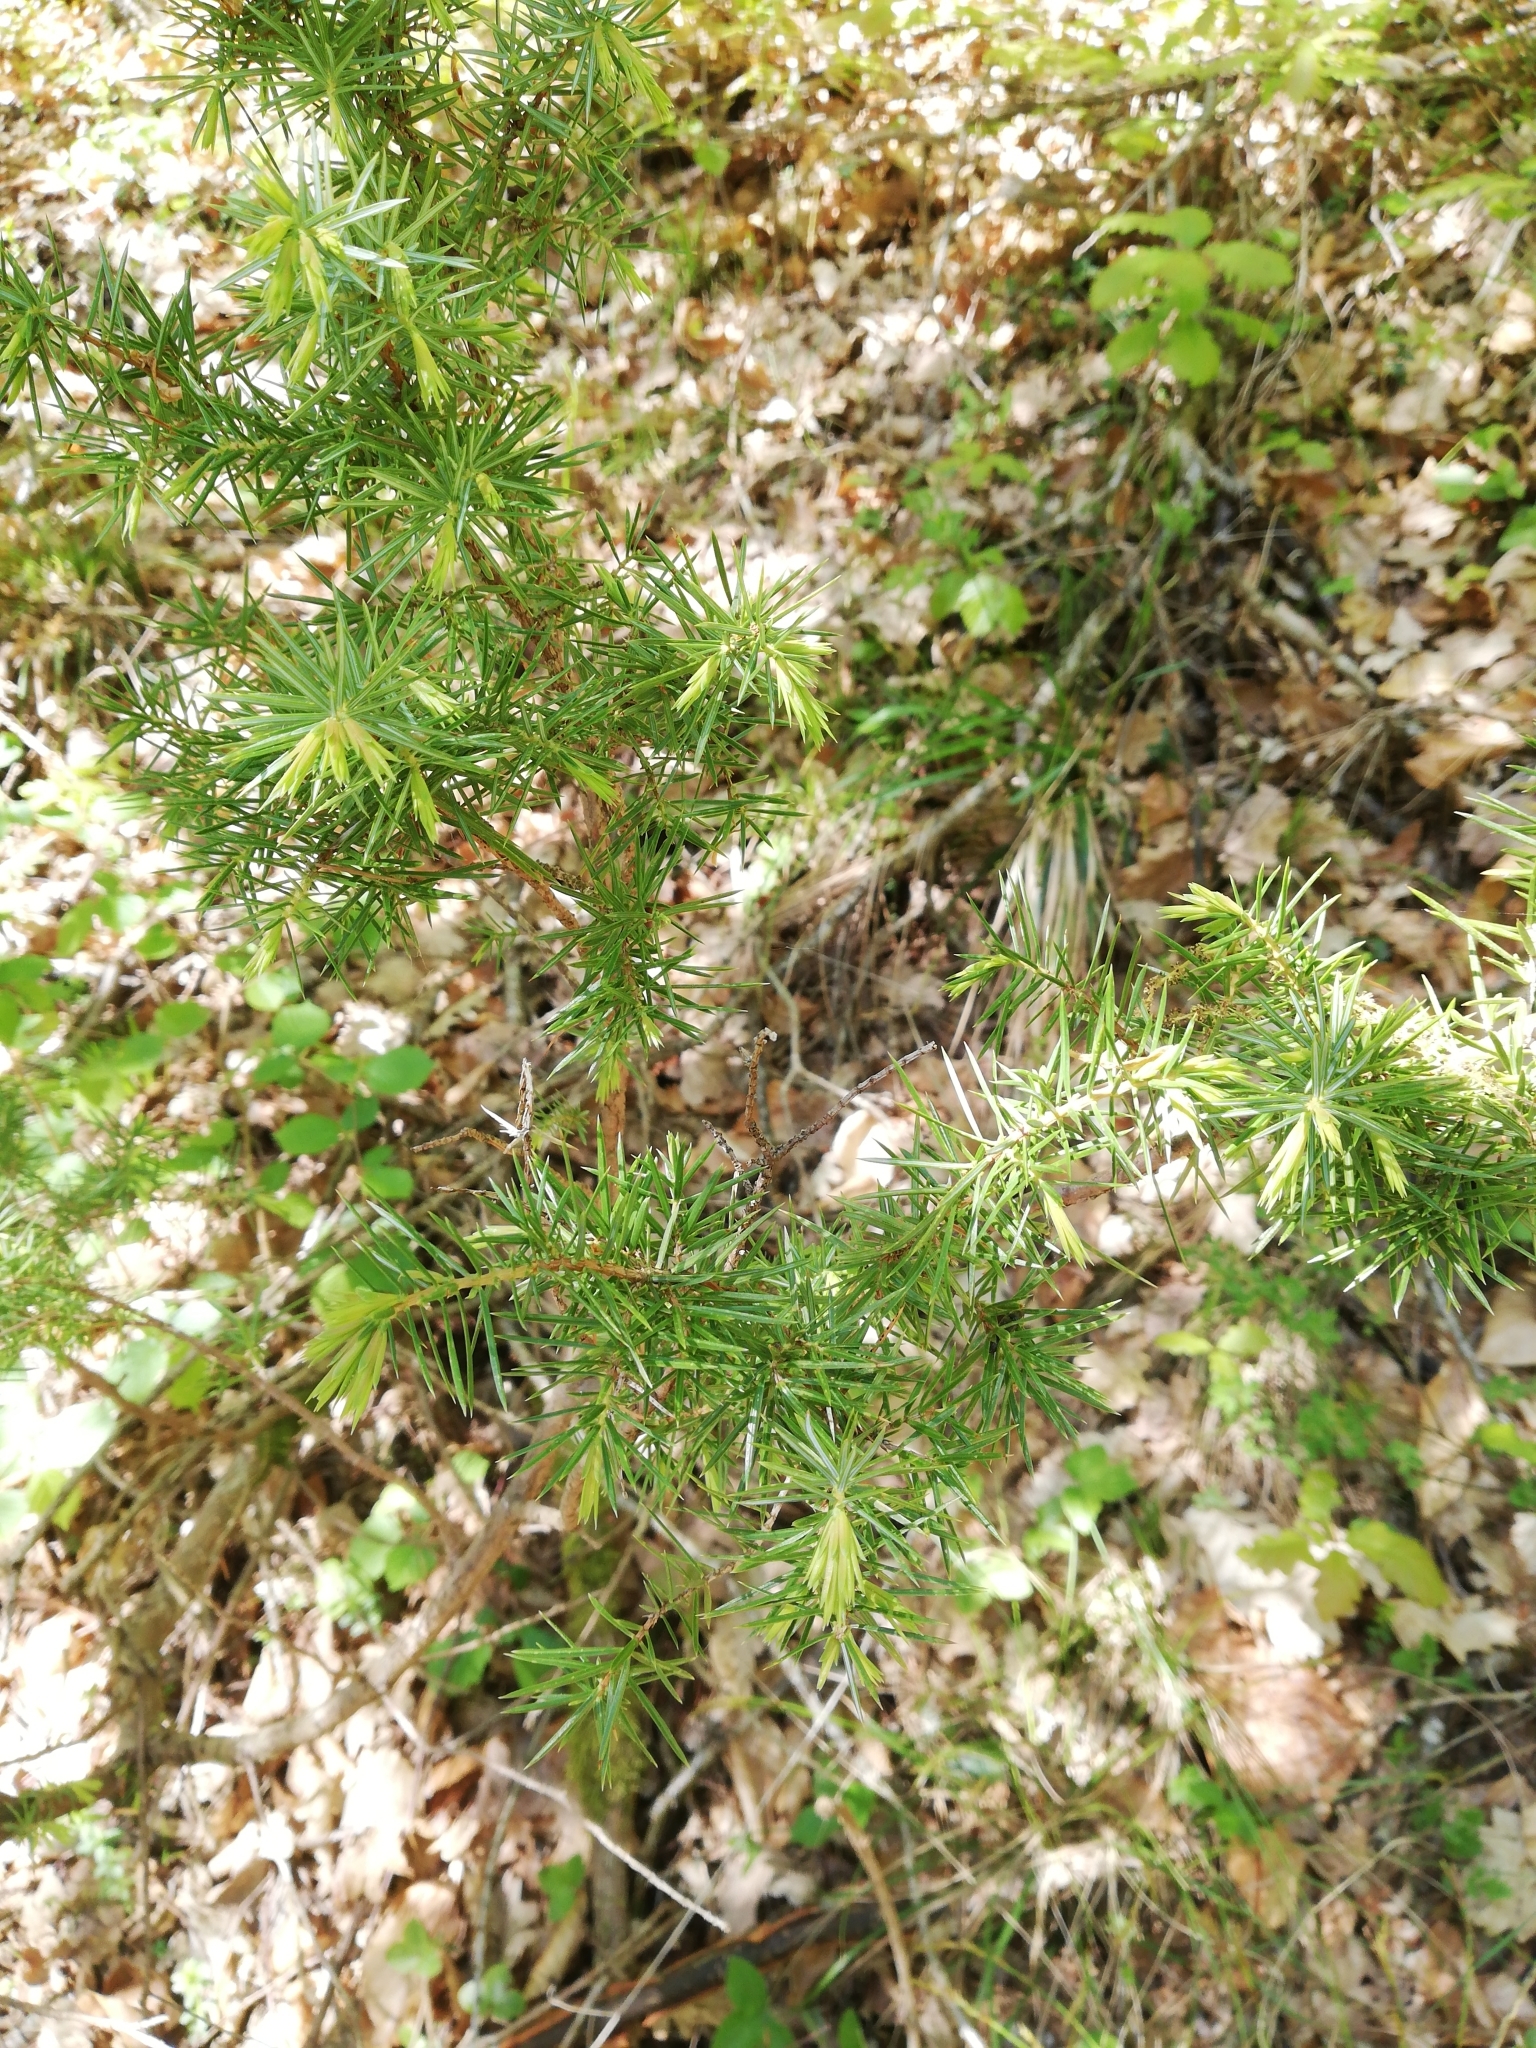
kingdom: Plantae
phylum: Tracheophyta
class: Pinopsida
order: Pinales
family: Cupressaceae
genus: Juniperus
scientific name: Juniperus communis
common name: Common juniper
